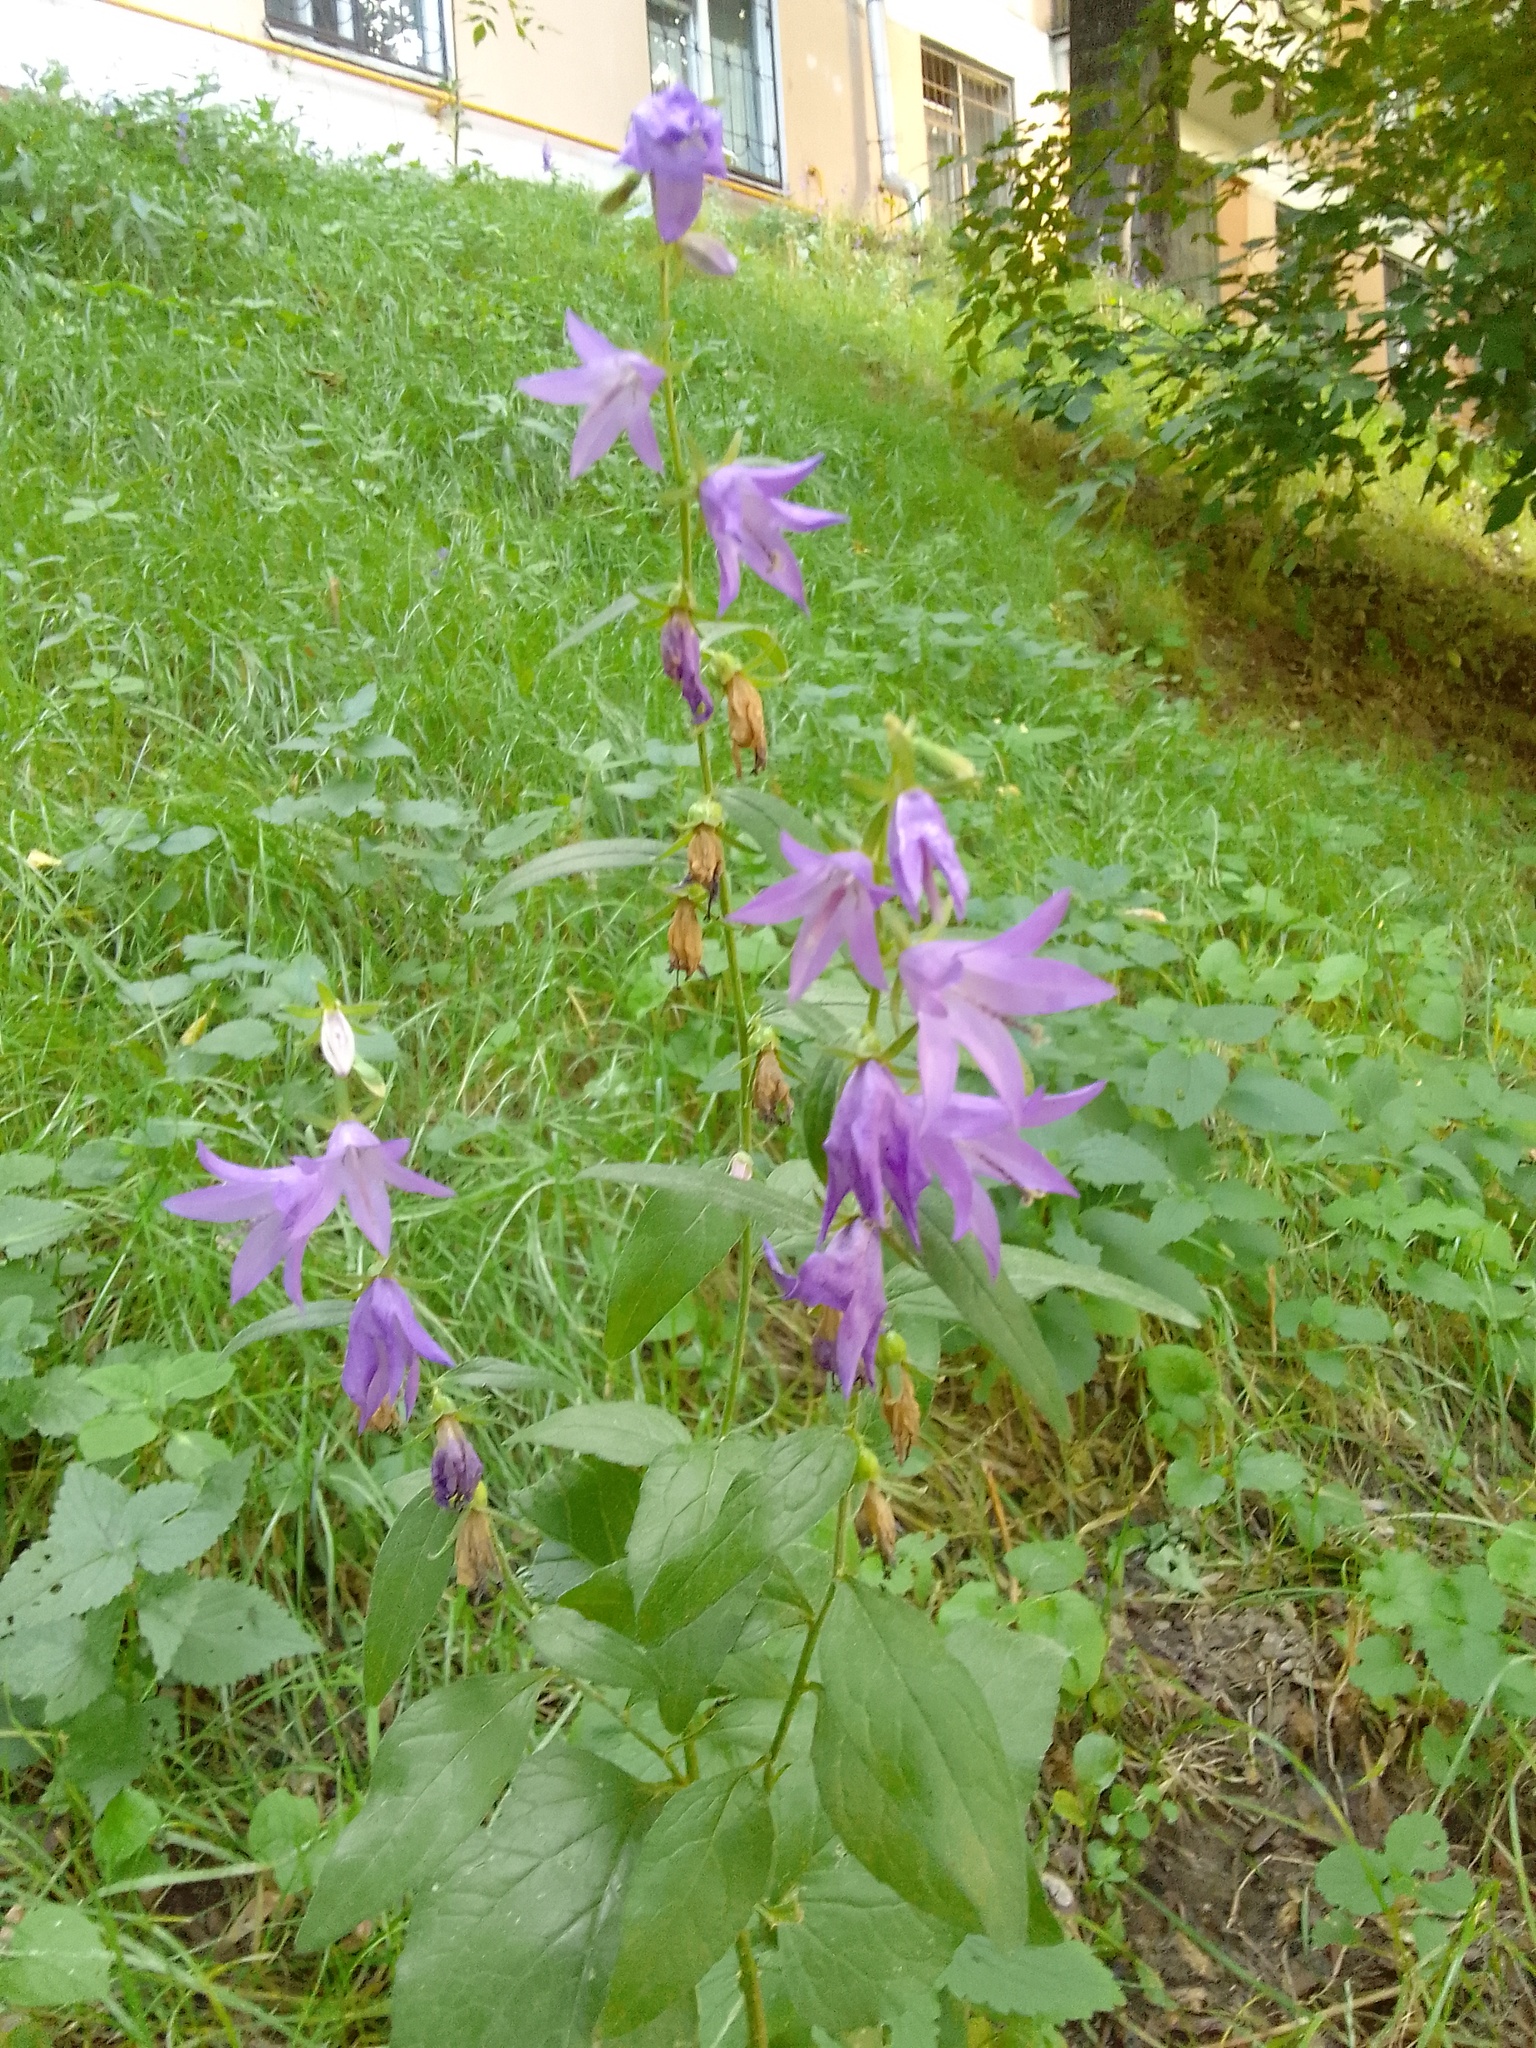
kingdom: Plantae
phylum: Tracheophyta
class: Magnoliopsida
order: Asterales
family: Campanulaceae
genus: Campanula
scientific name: Campanula rapunculoides
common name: Creeping bellflower
